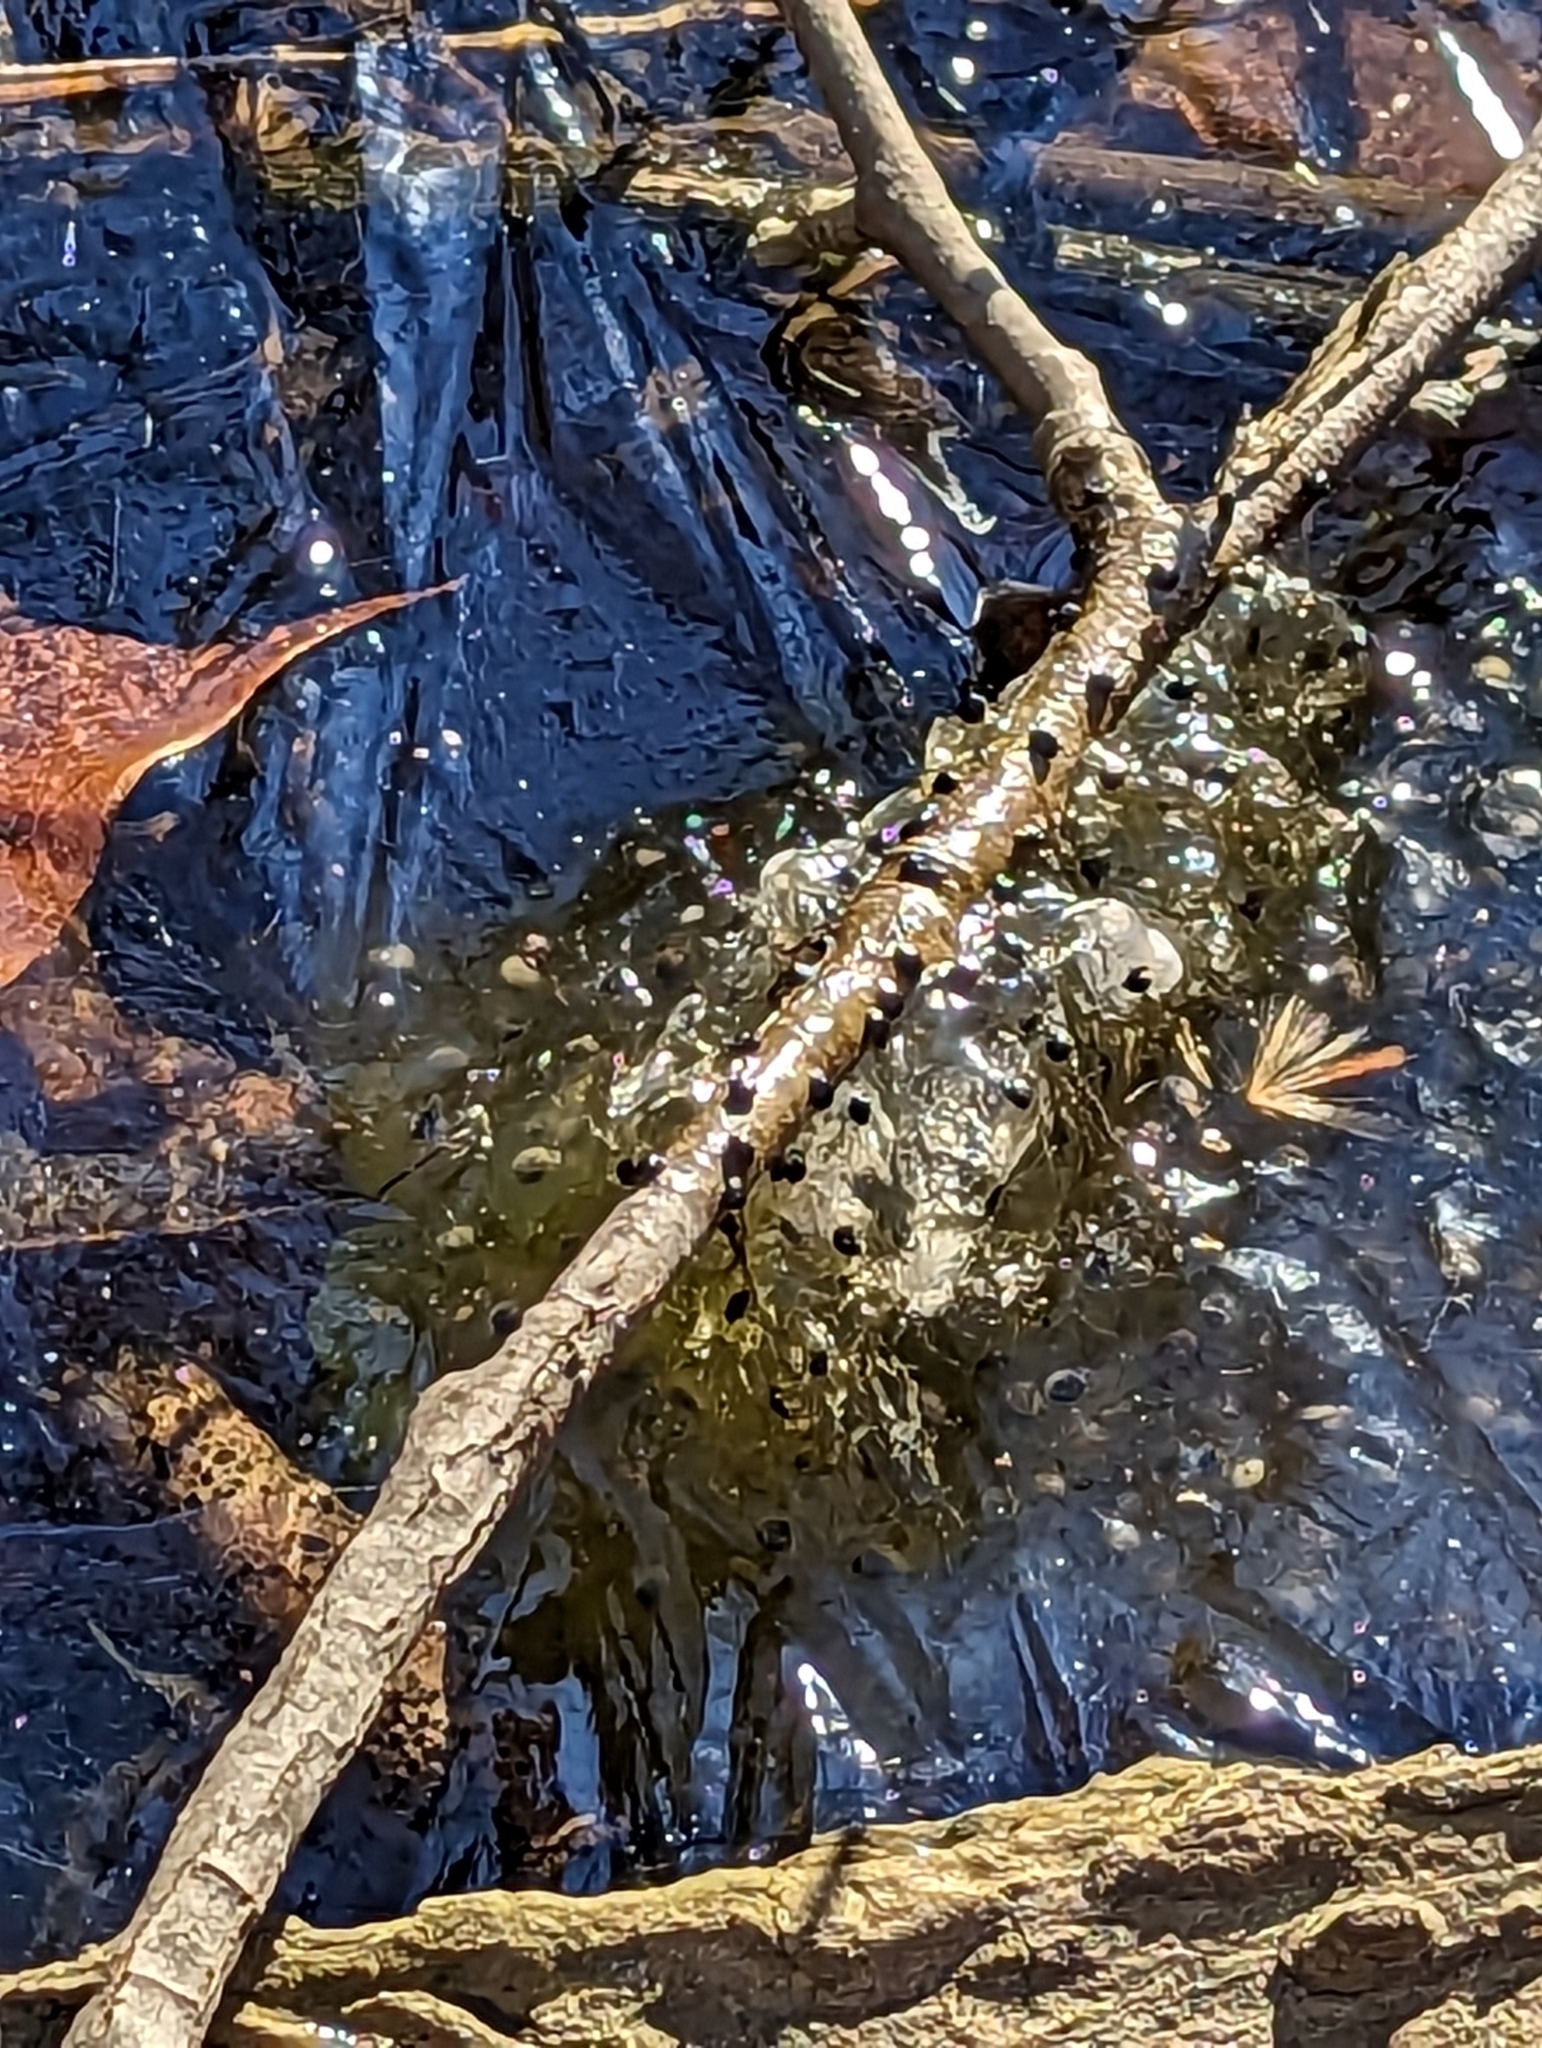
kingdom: Animalia
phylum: Chordata
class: Amphibia
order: Anura
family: Ranidae
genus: Lithobates
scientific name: Lithobates sylvaticus
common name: Wood frog
